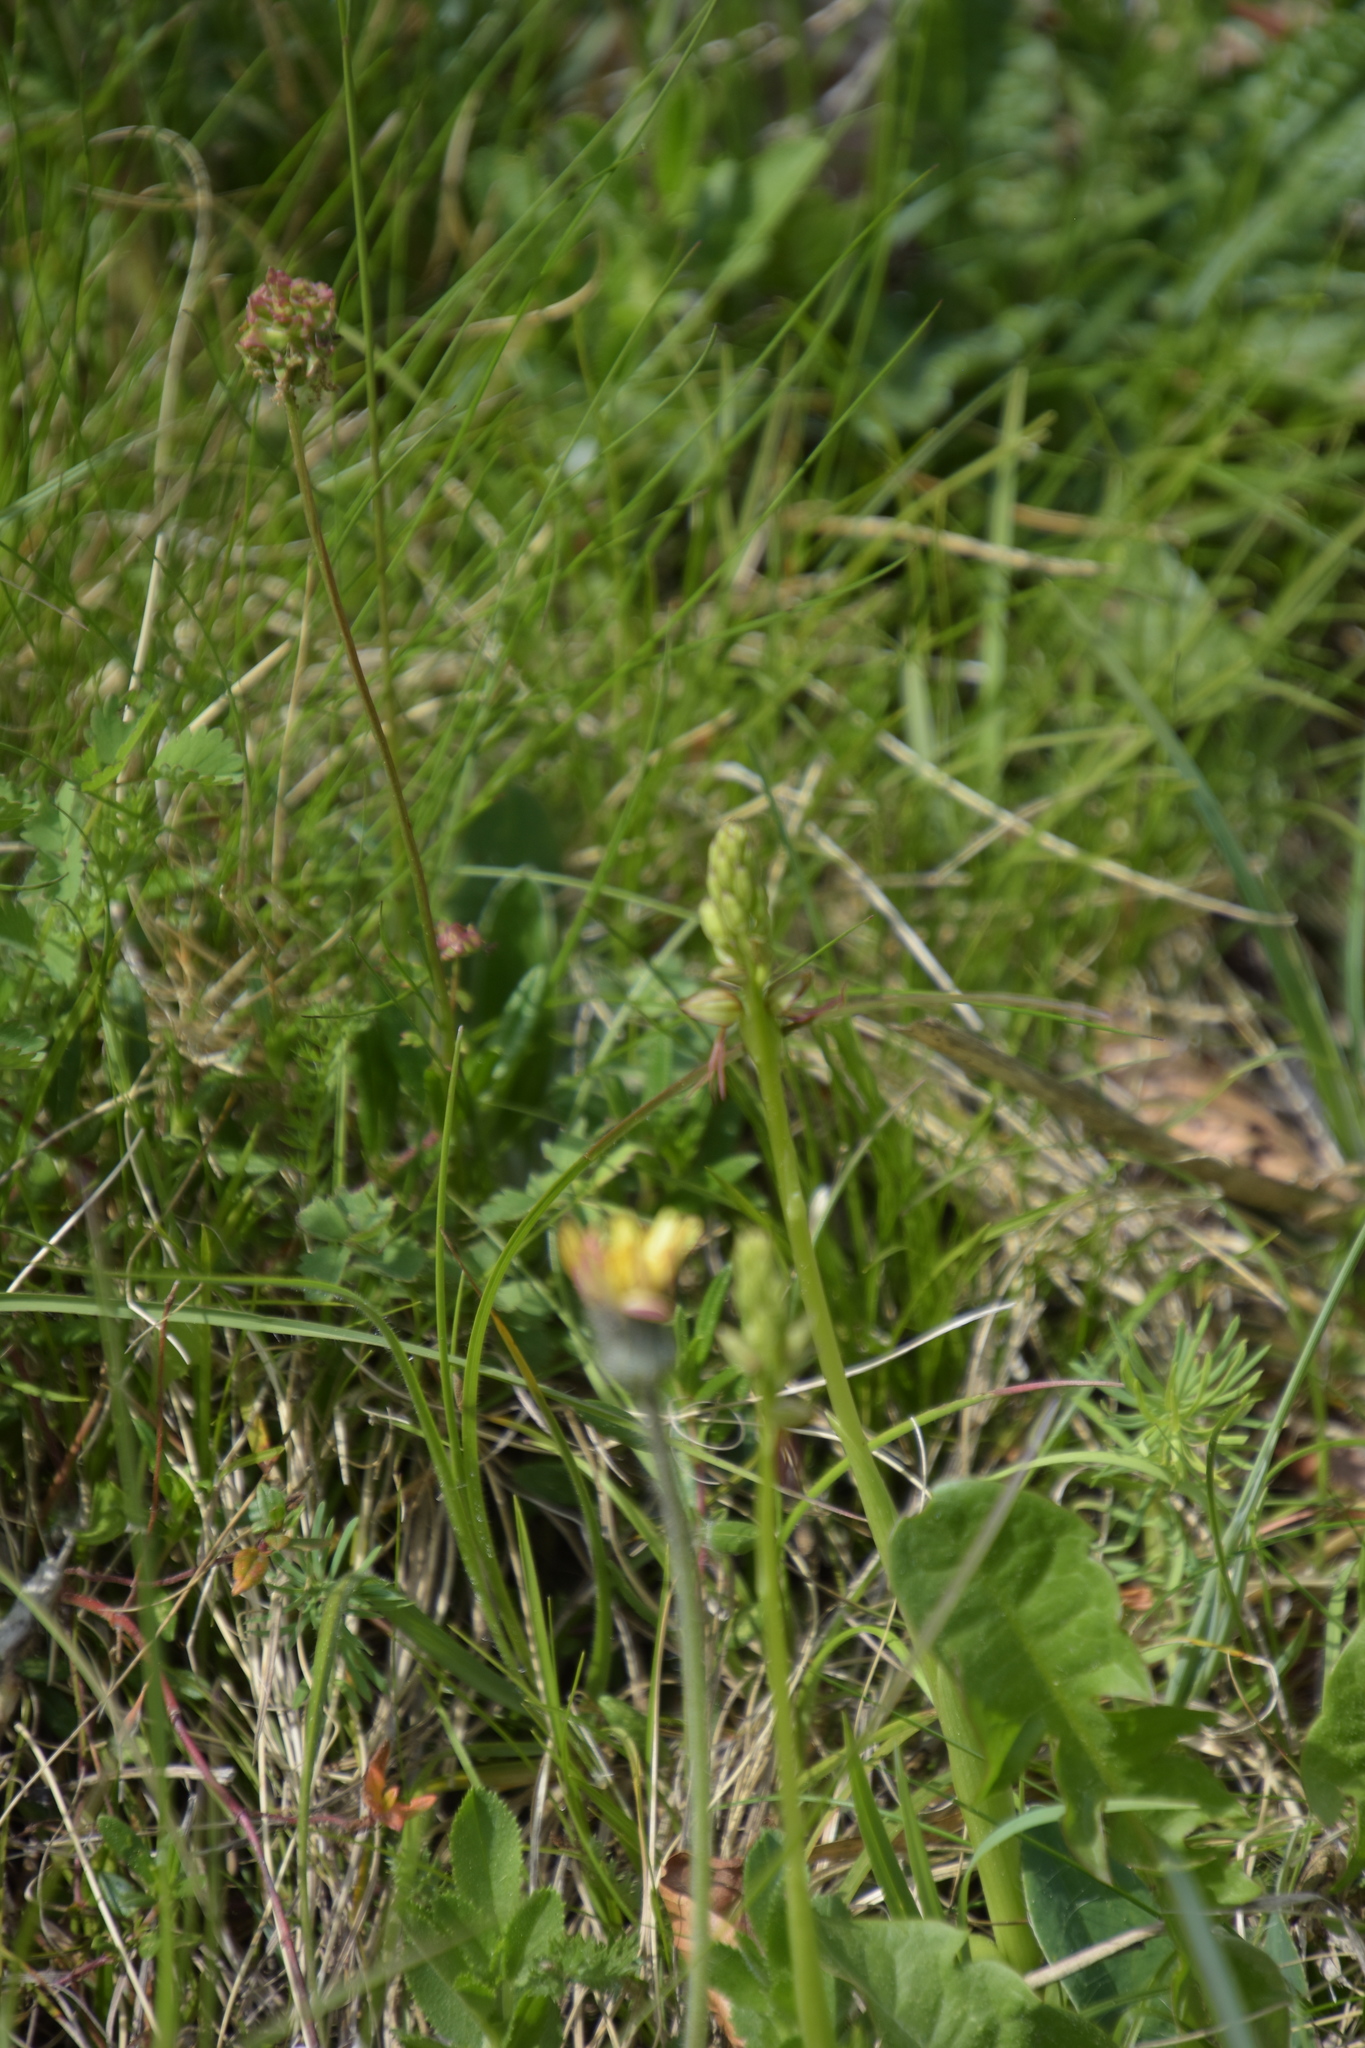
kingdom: Plantae
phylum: Tracheophyta
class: Liliopsida
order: Asparagales
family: Orchidaceae
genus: Orchis
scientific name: Orchis anthropophora
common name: Man orchid
